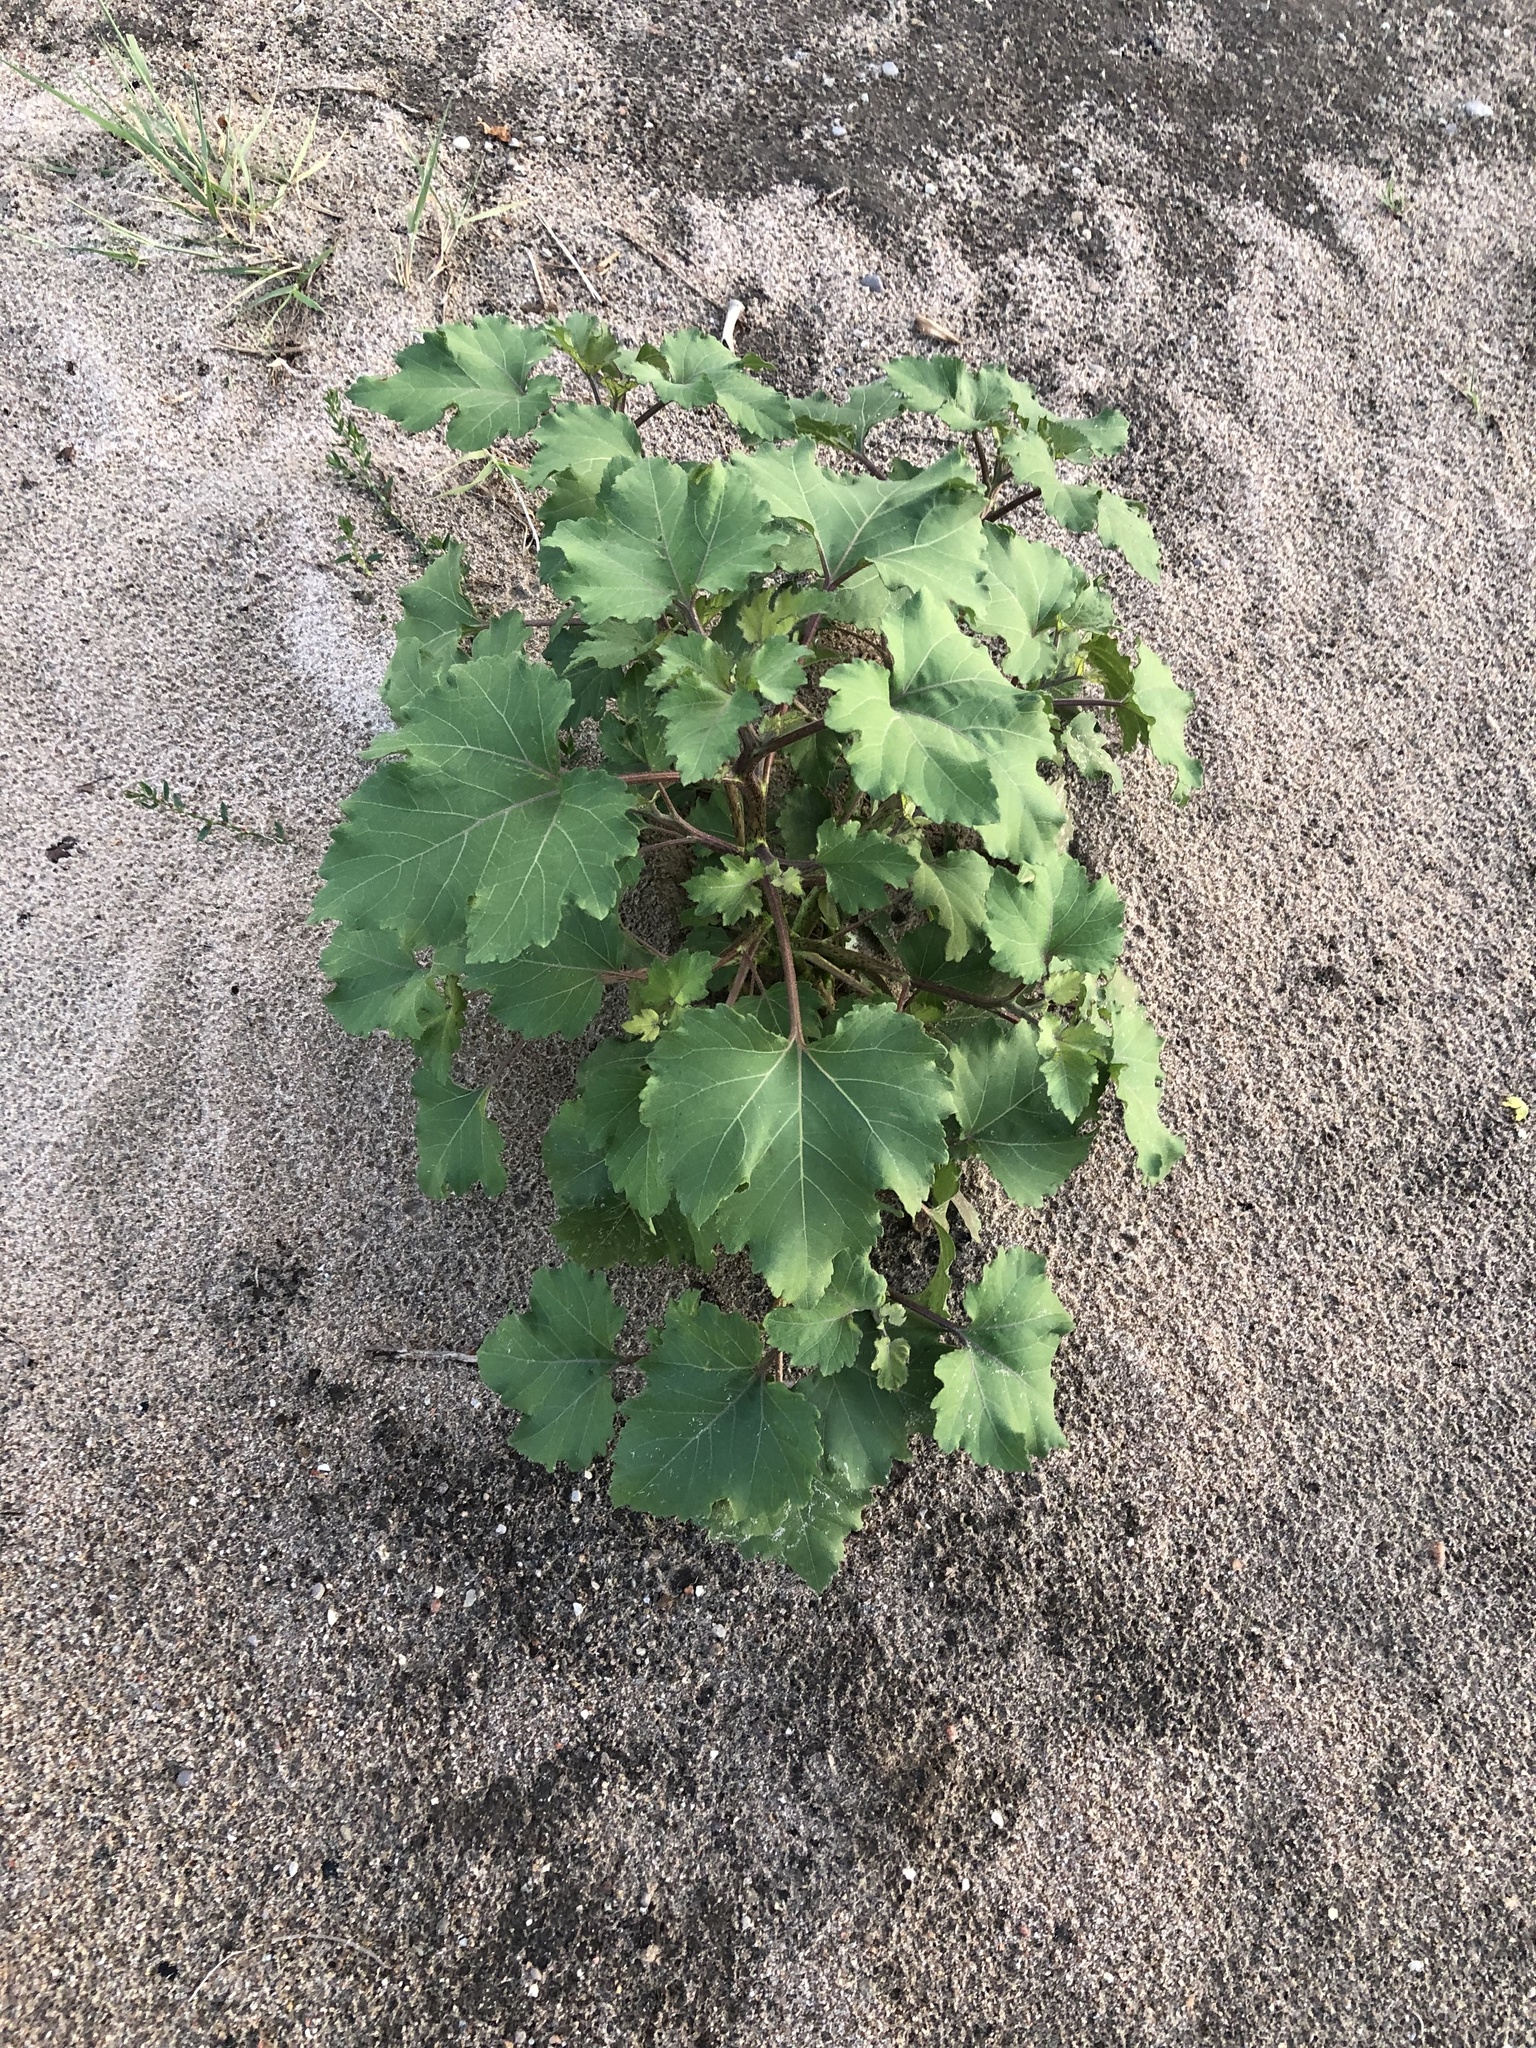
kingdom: Plantae
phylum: Tracheophyta
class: Magnoliopsida
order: Asterales
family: Asteraceae
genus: Xanthium
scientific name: Xanthium strumarium
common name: Rough cocklebur
